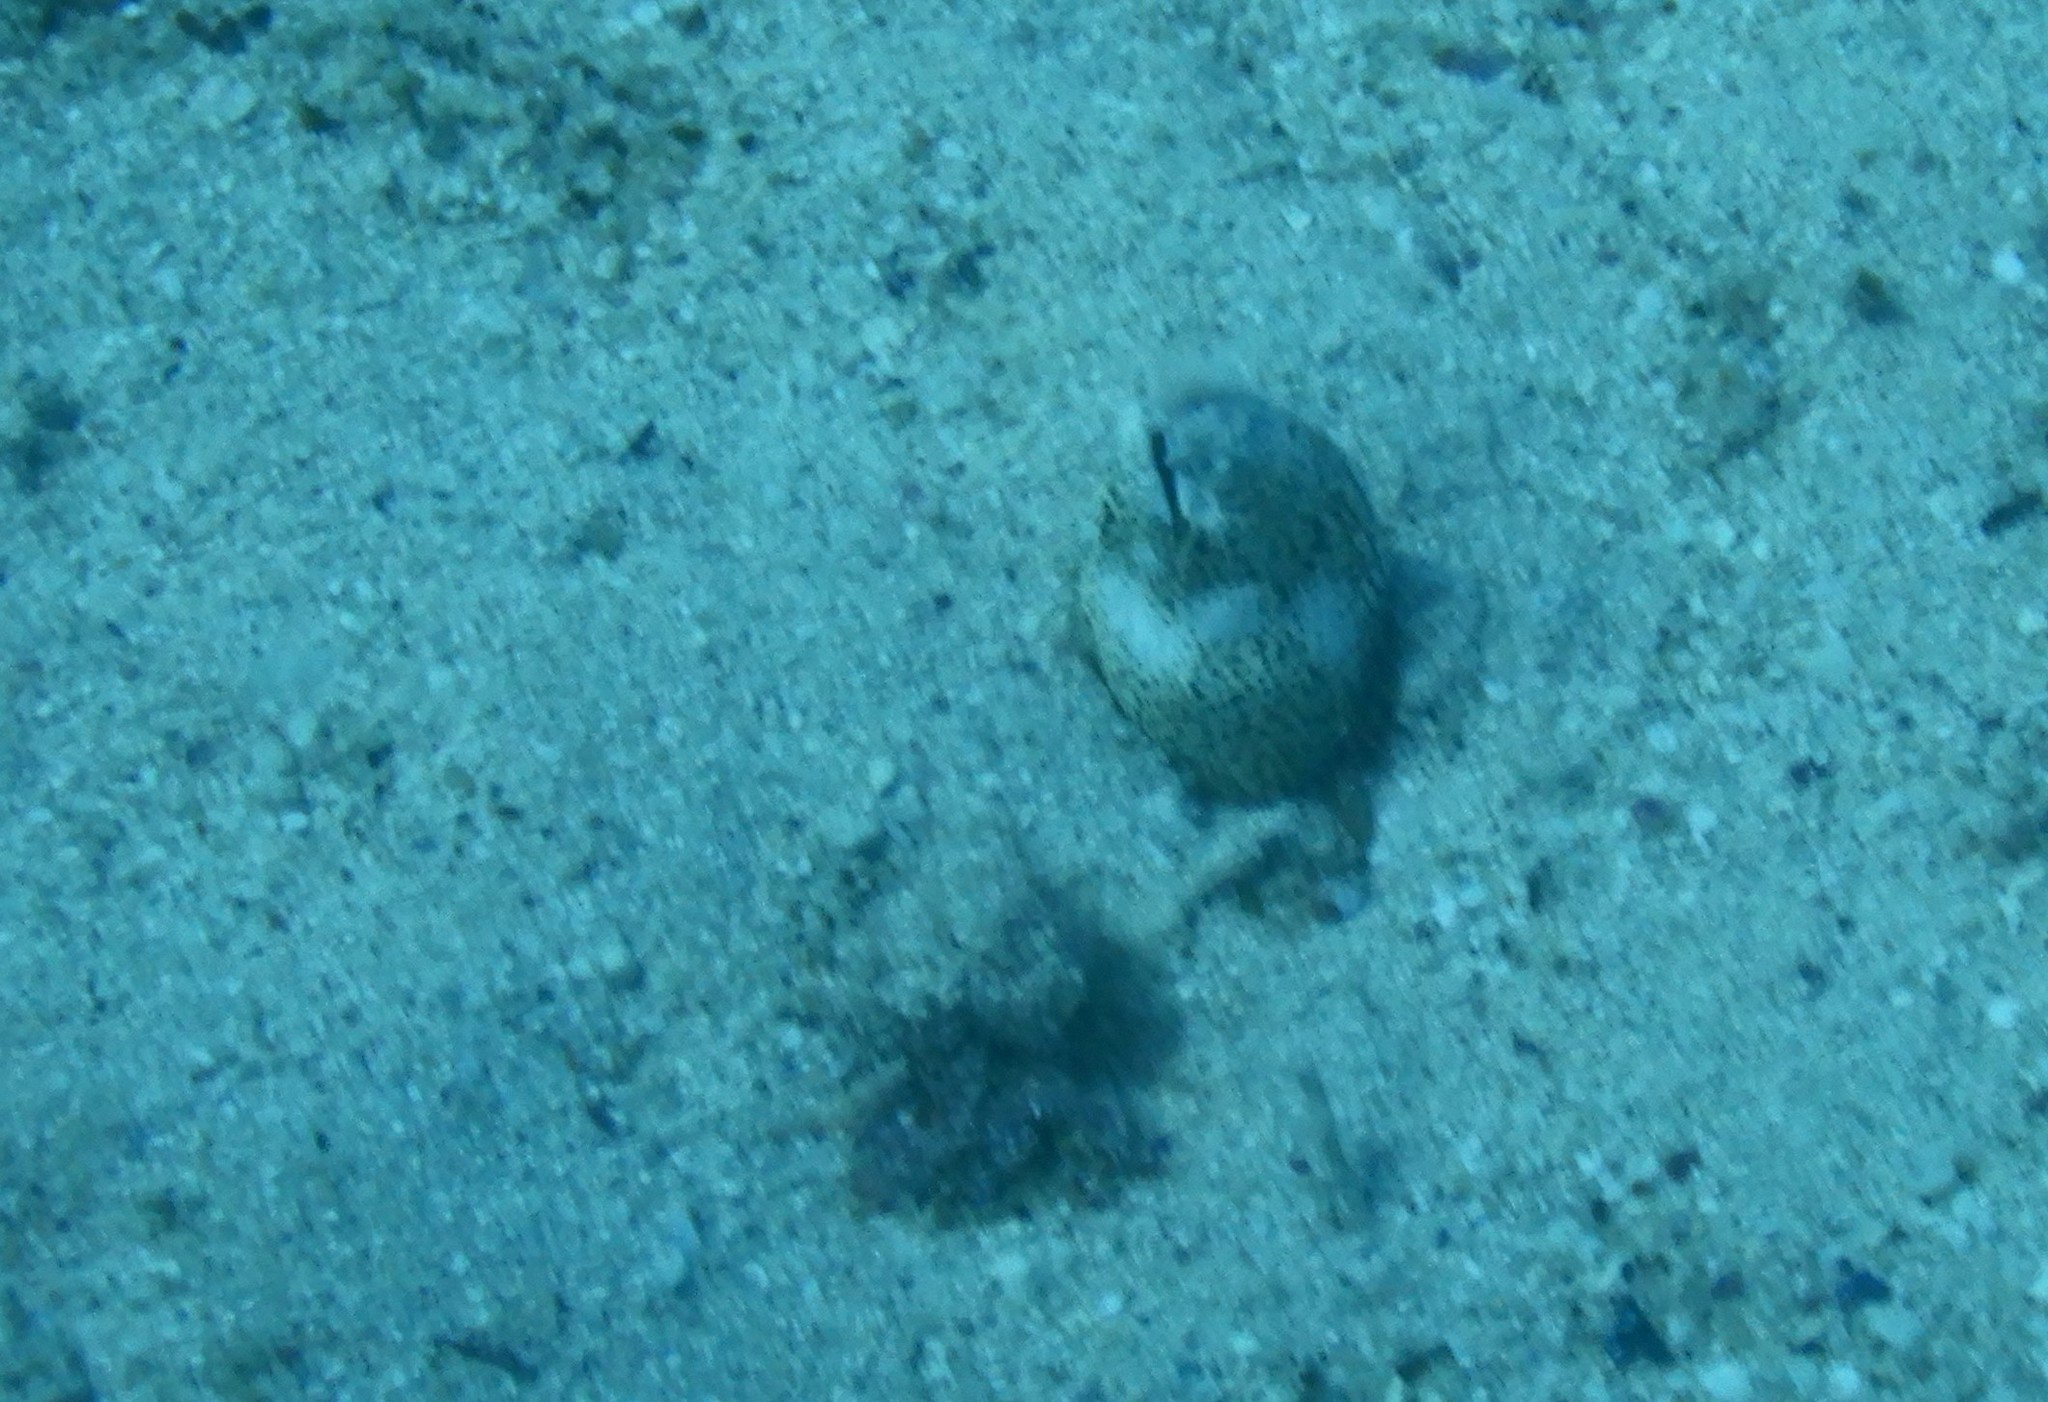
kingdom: Animalia
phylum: Chordata
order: Anguilliformes
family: Ophichthidae
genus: Callechelys
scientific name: Callechelys marmorata
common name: Marbled snake eel
